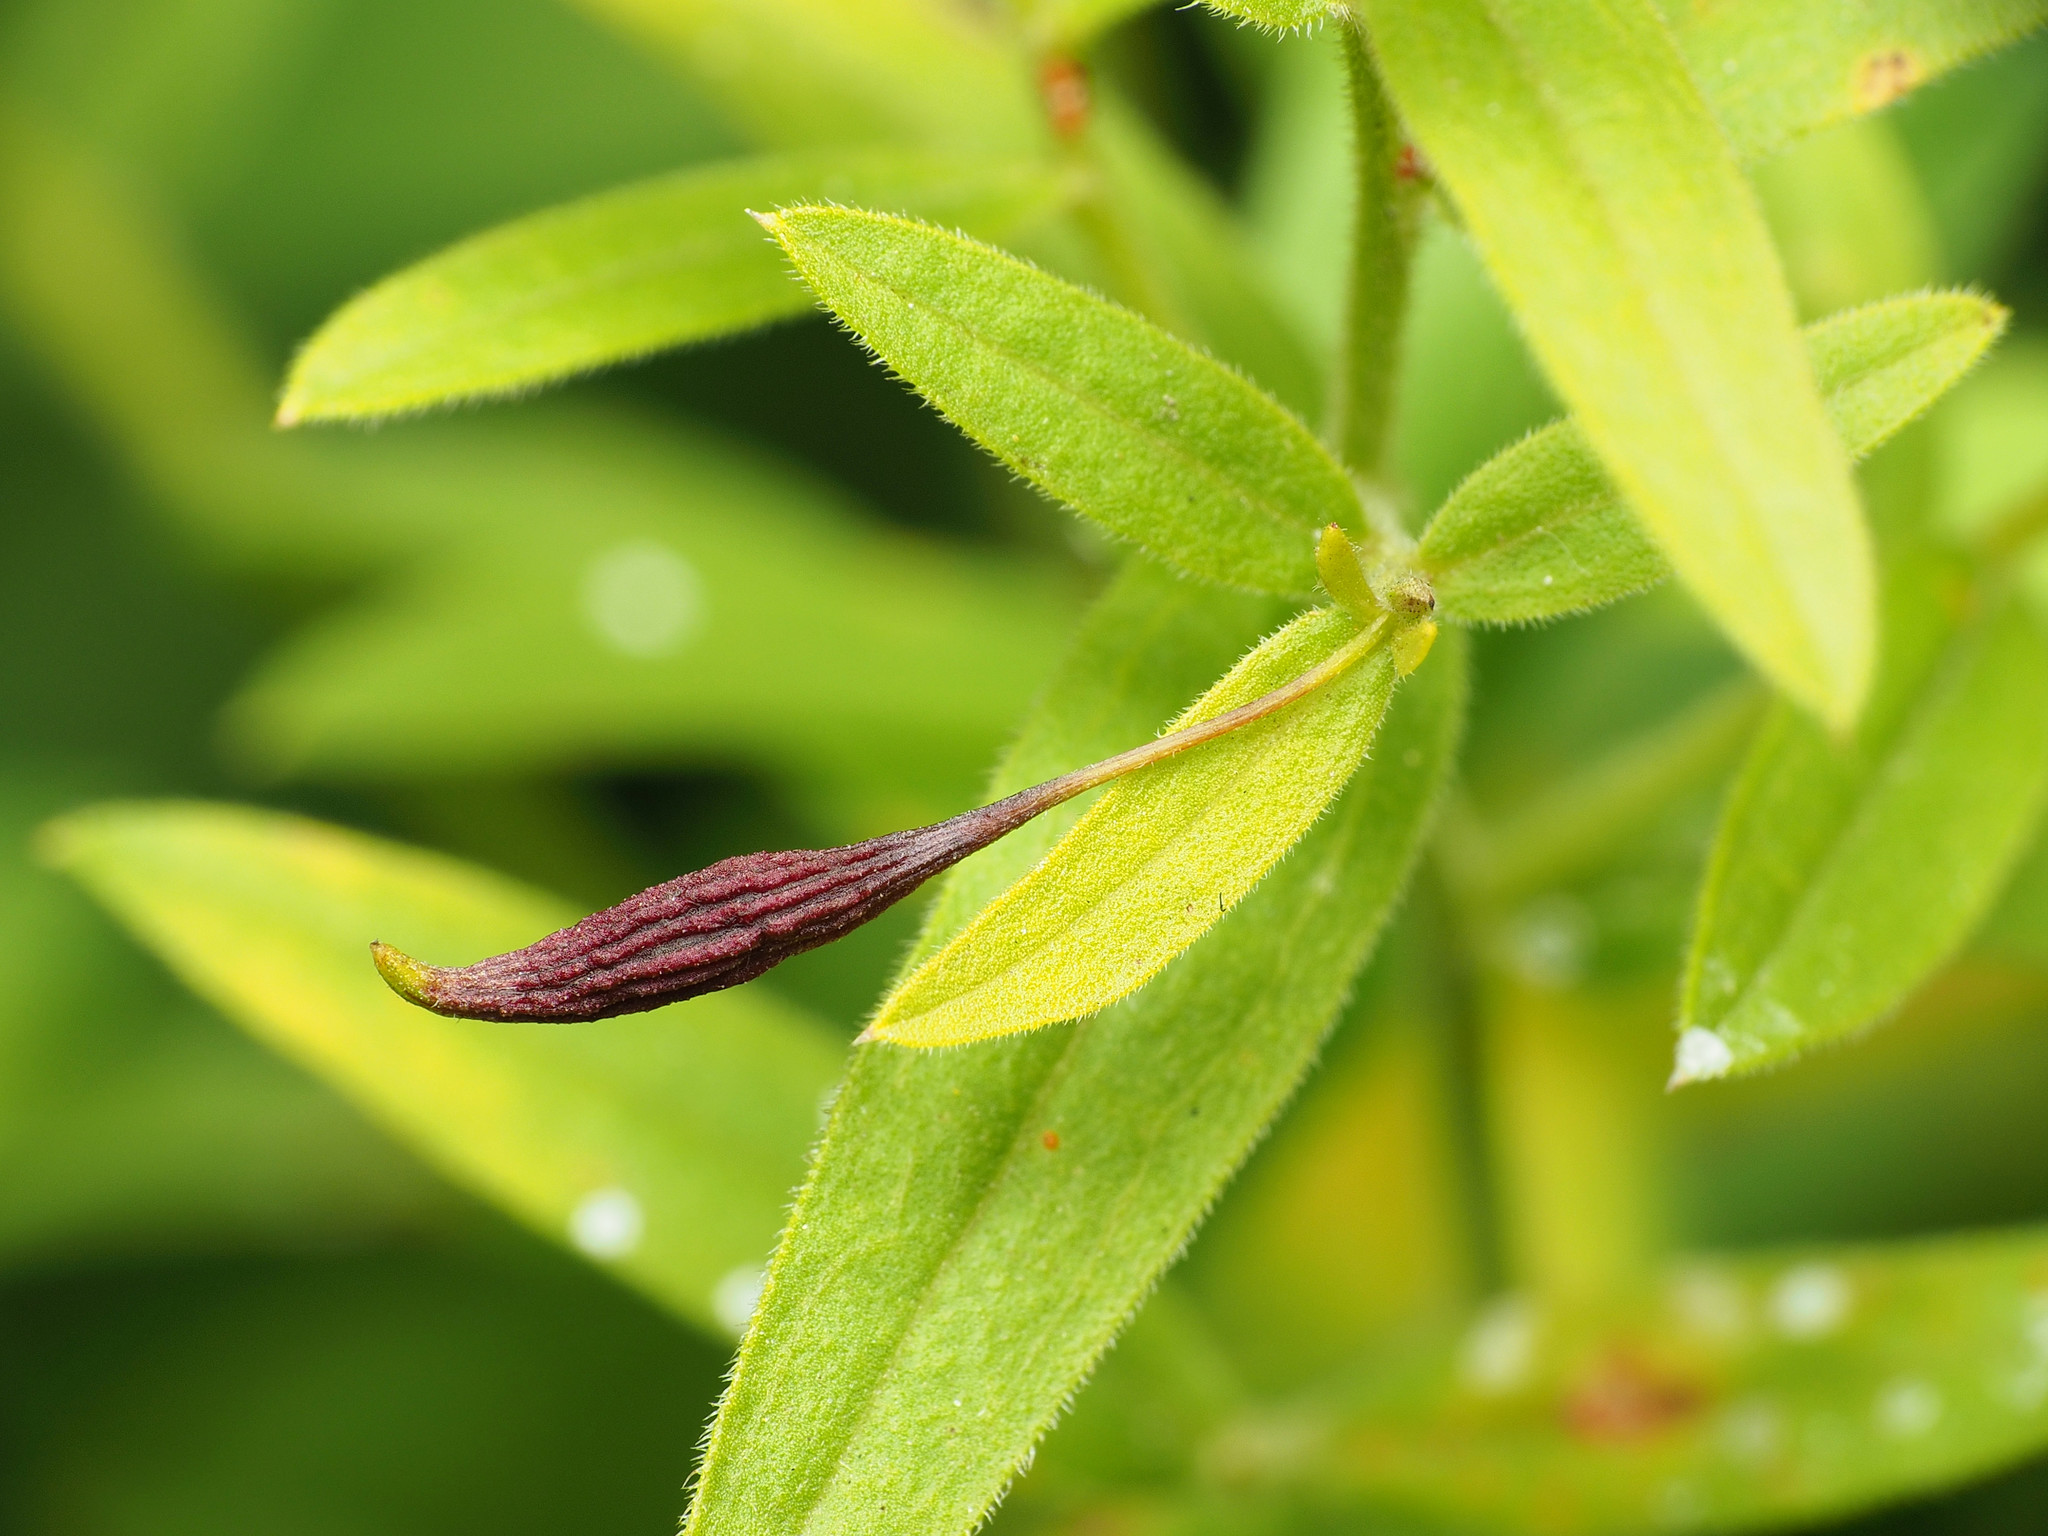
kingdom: Animalia
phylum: Arthropoda
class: Insecta
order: Diptera
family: Cecidomyiidae
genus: Rhopalomyia
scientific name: Rhopalomyia pedicellata
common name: Goldentop pedicellate gall midge
